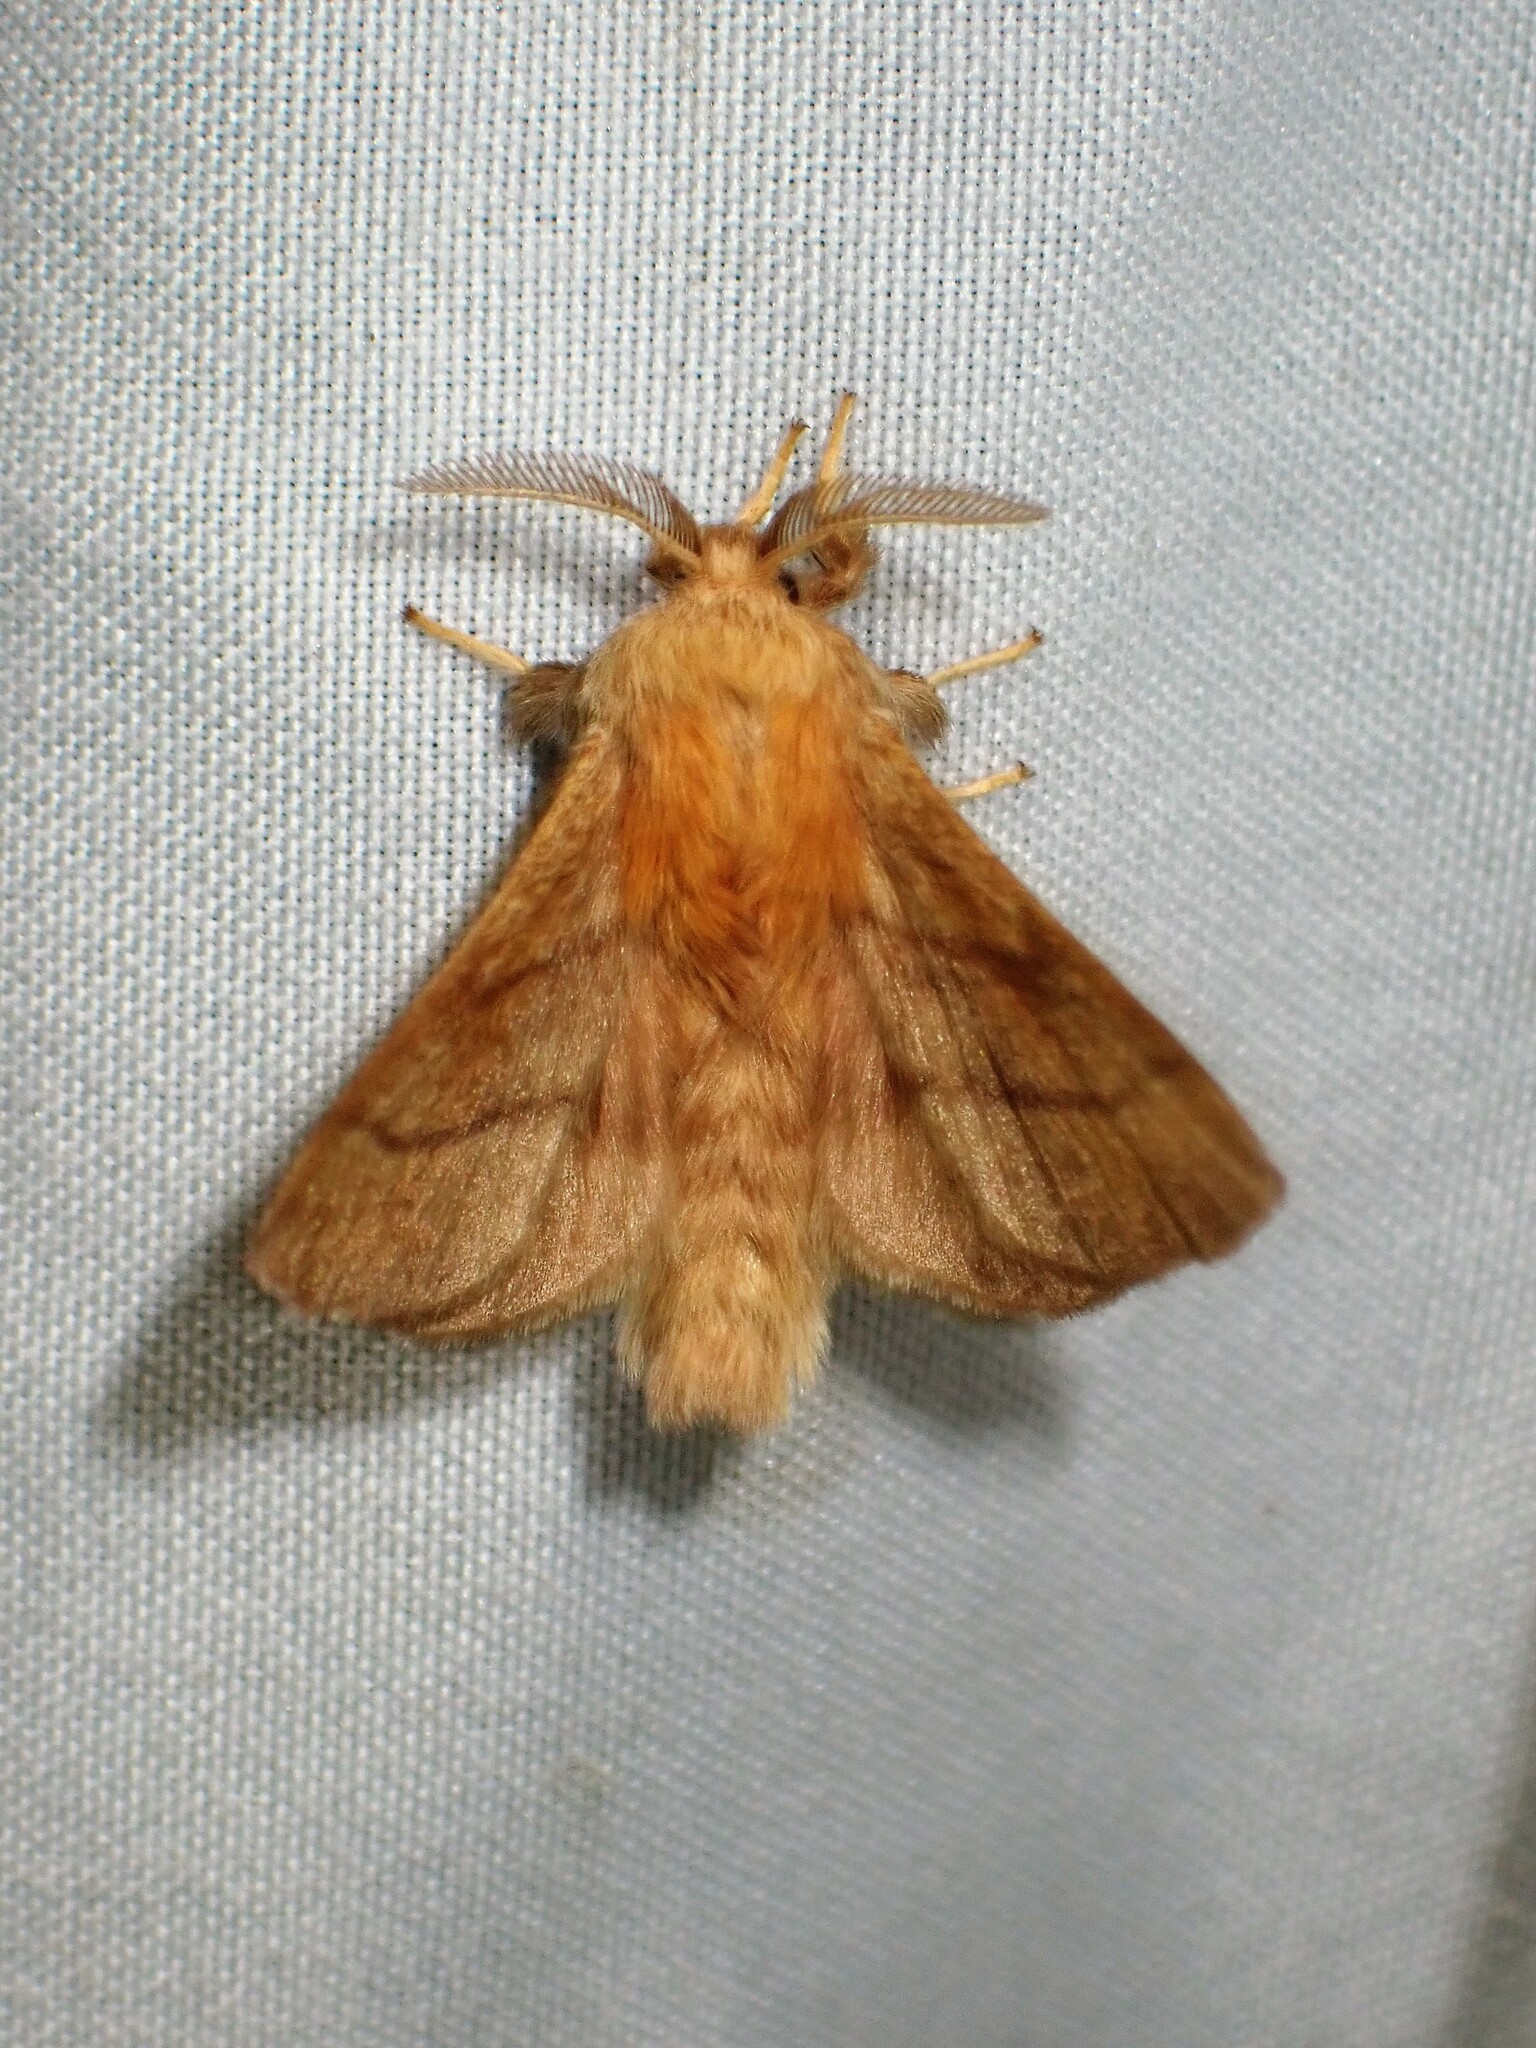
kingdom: Animalia
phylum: Arthropoda
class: Insecta
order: Lepidoptera
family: Lasiocampidae
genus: Malacosoma
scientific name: Malacosoma disstria
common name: Forest tent caterpillar
